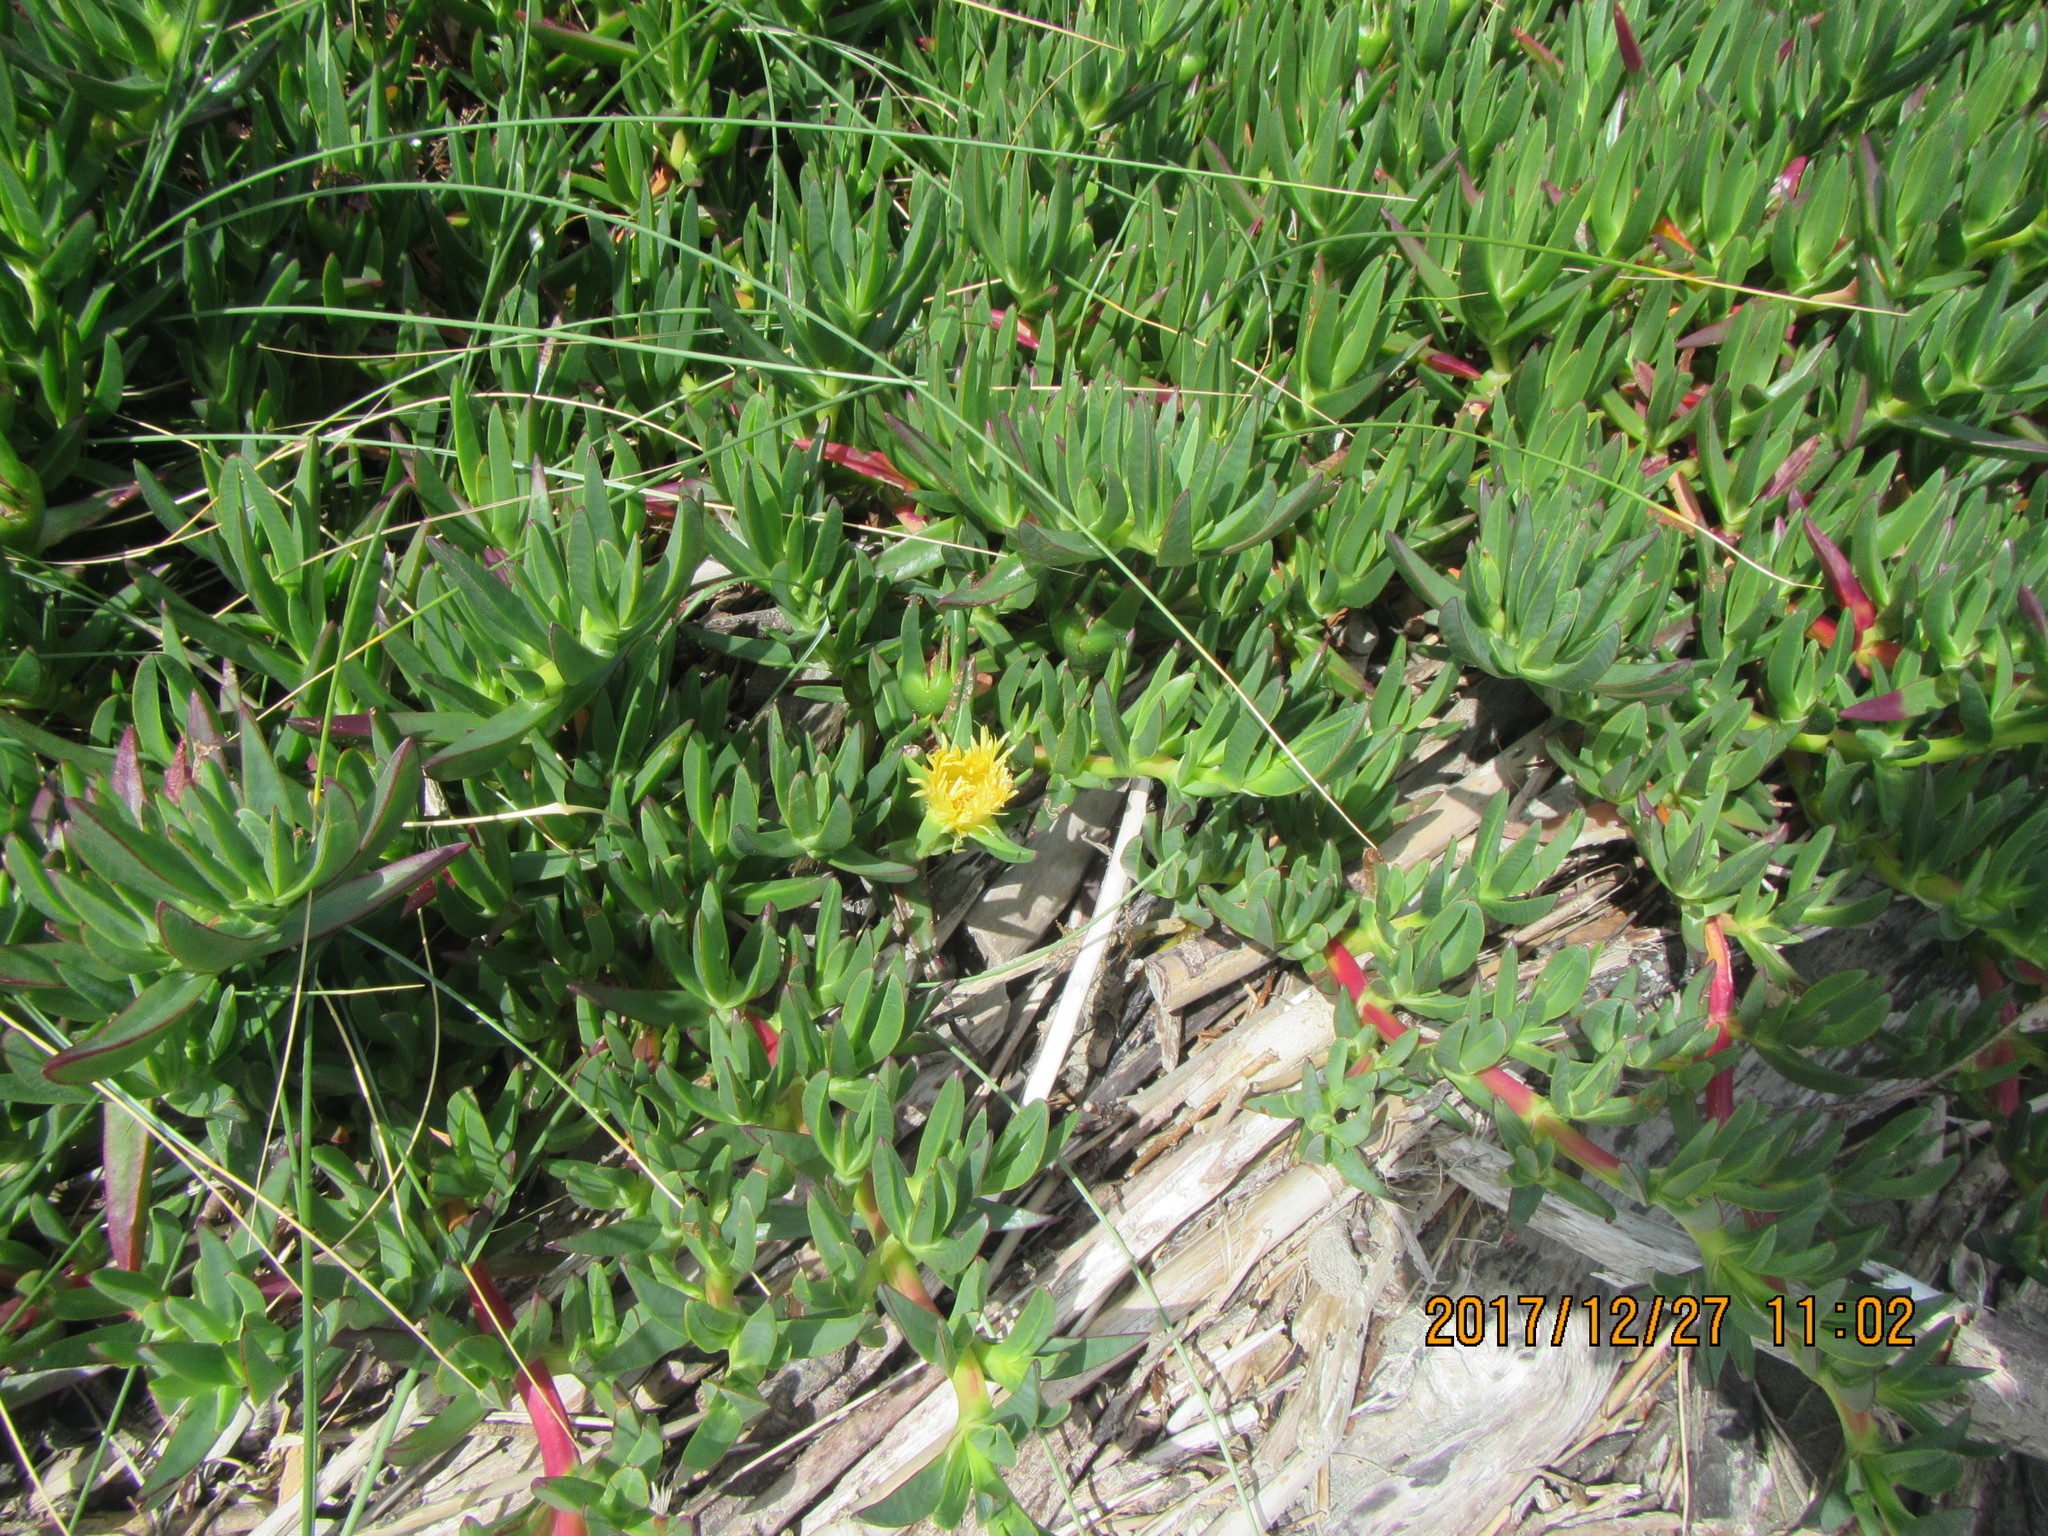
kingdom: Plantae
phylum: Tracheophyta
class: Magnoliopsida
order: Caryophyllales
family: Aizoaceae
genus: Carpobrotus
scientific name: Carpobrotus edulis
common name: Hottentot-fig
